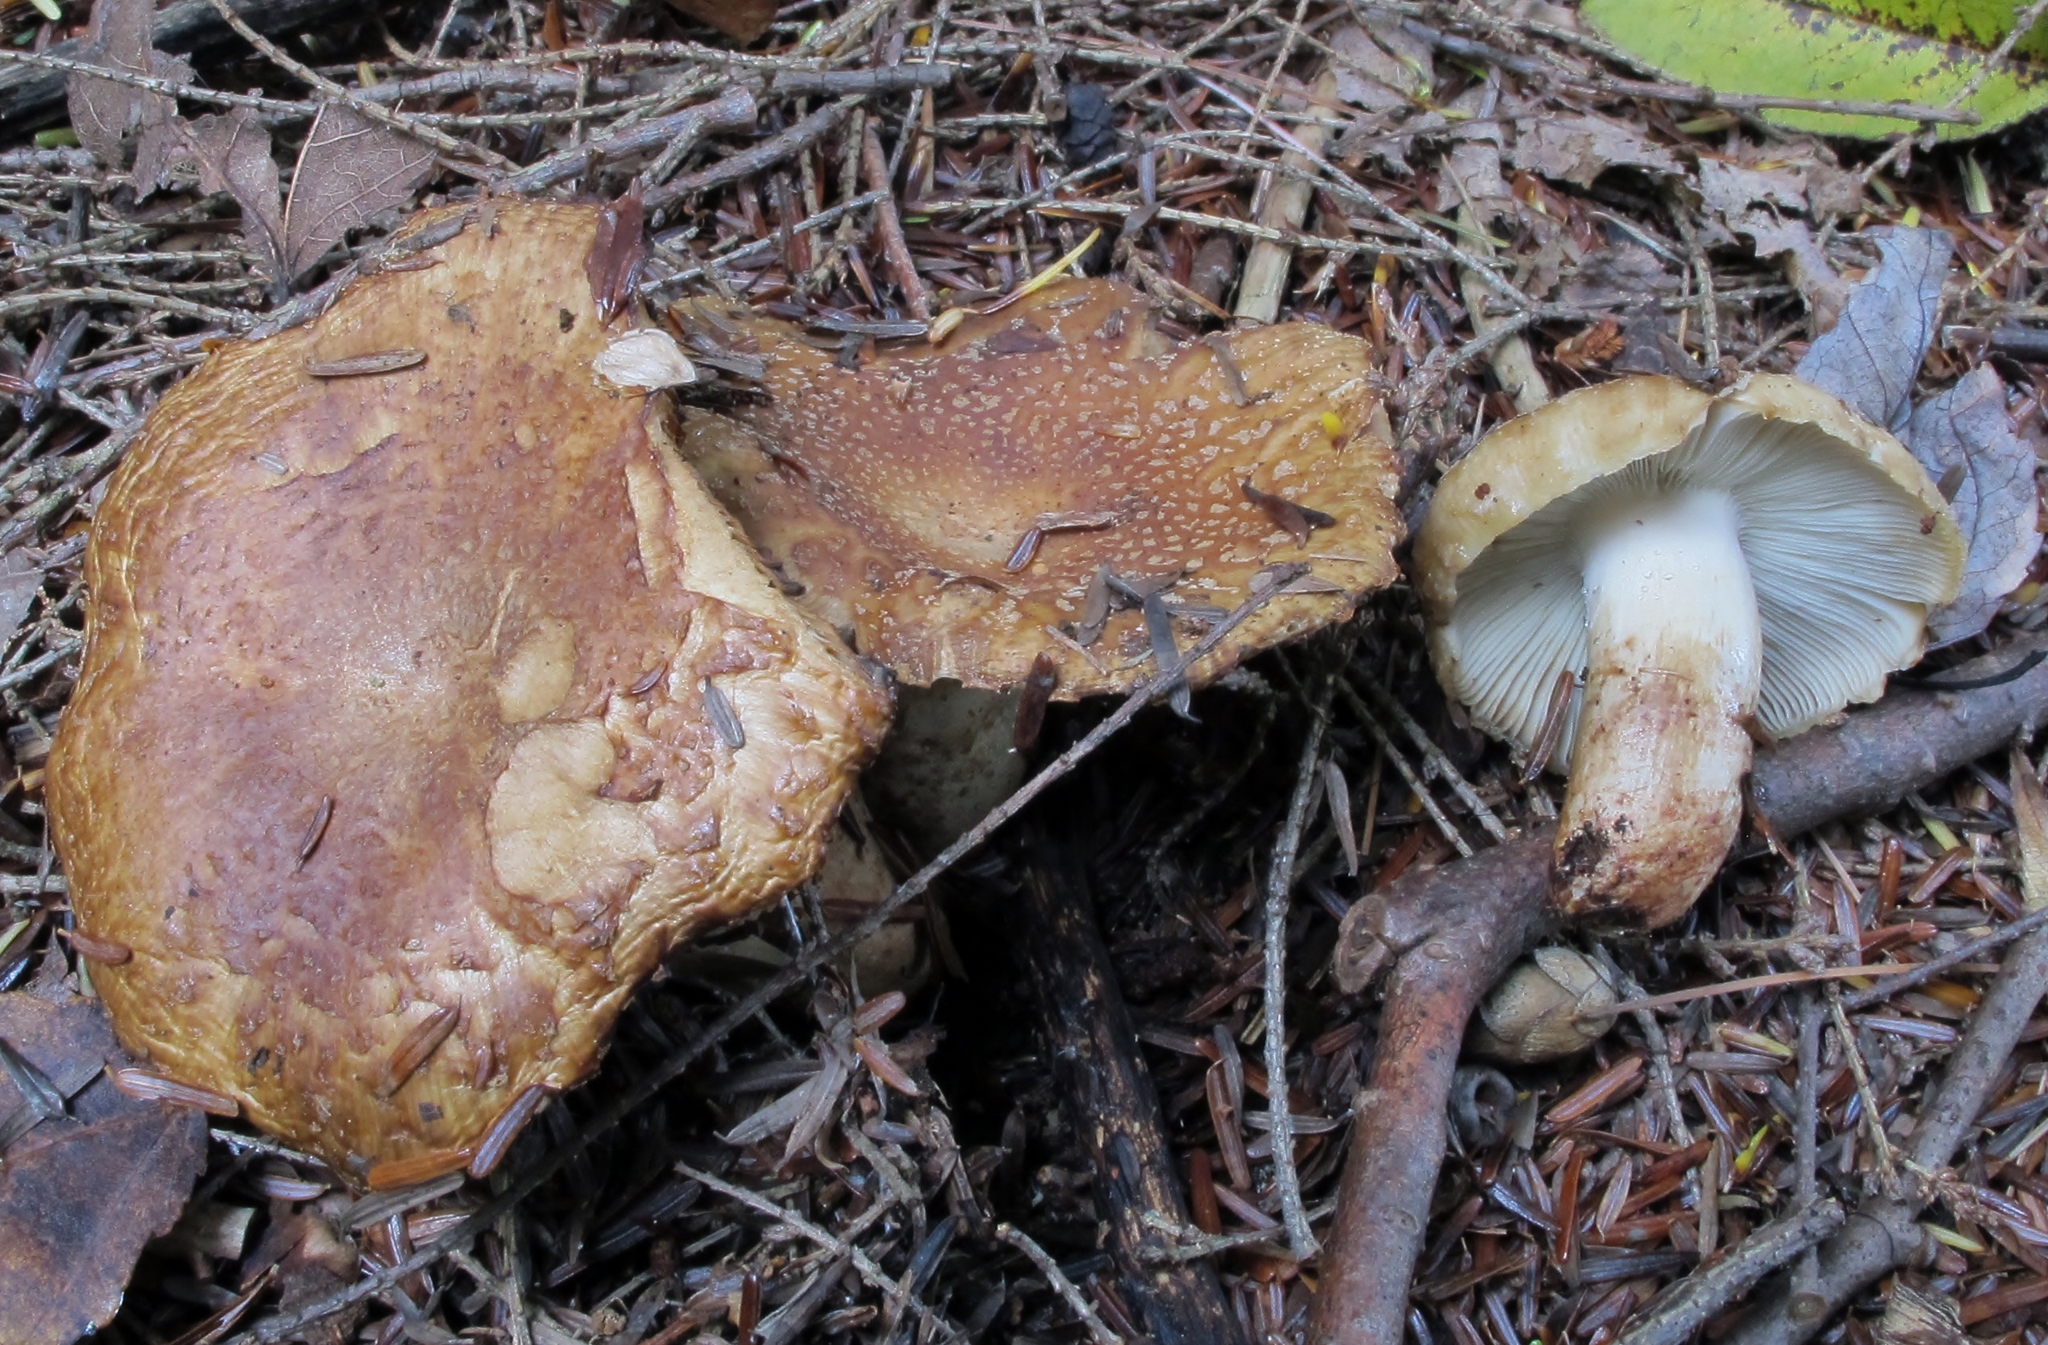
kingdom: Fungi
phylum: Basidiomycota
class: Agaricomycetes
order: Russulales
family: Russulaceae
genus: Russula
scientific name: Russula granulata
